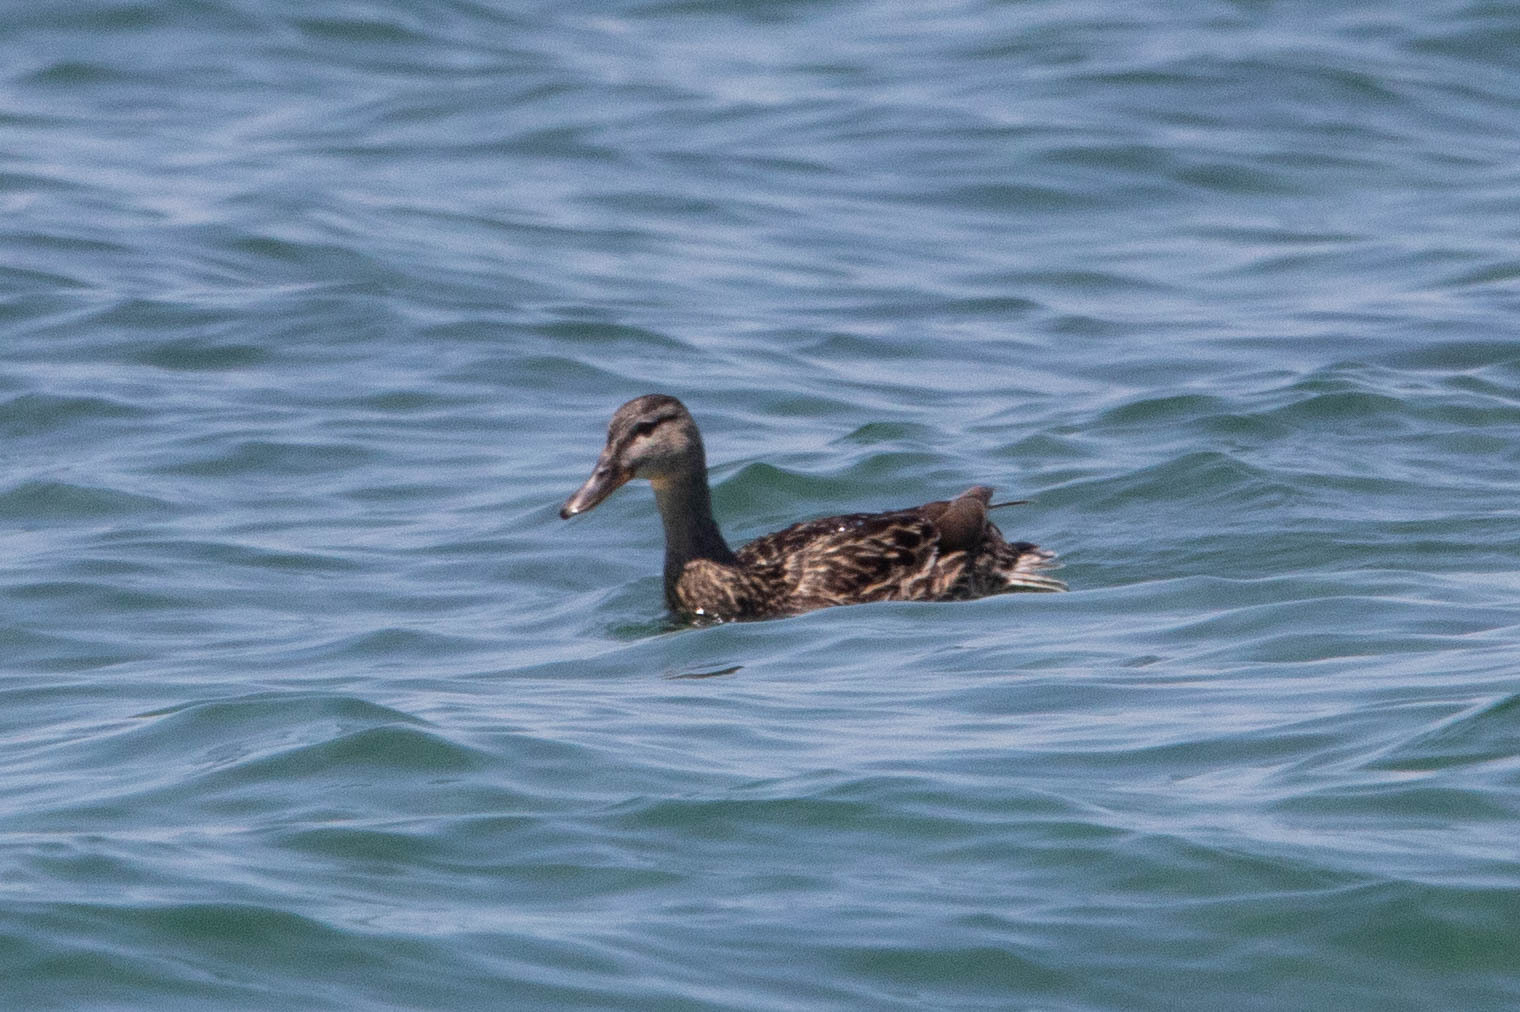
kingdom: Animalia
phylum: Chordata
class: Aves
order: Anseriformes
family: Anatidae
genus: Anas
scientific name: Anas platyrhynchos
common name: Mallard
